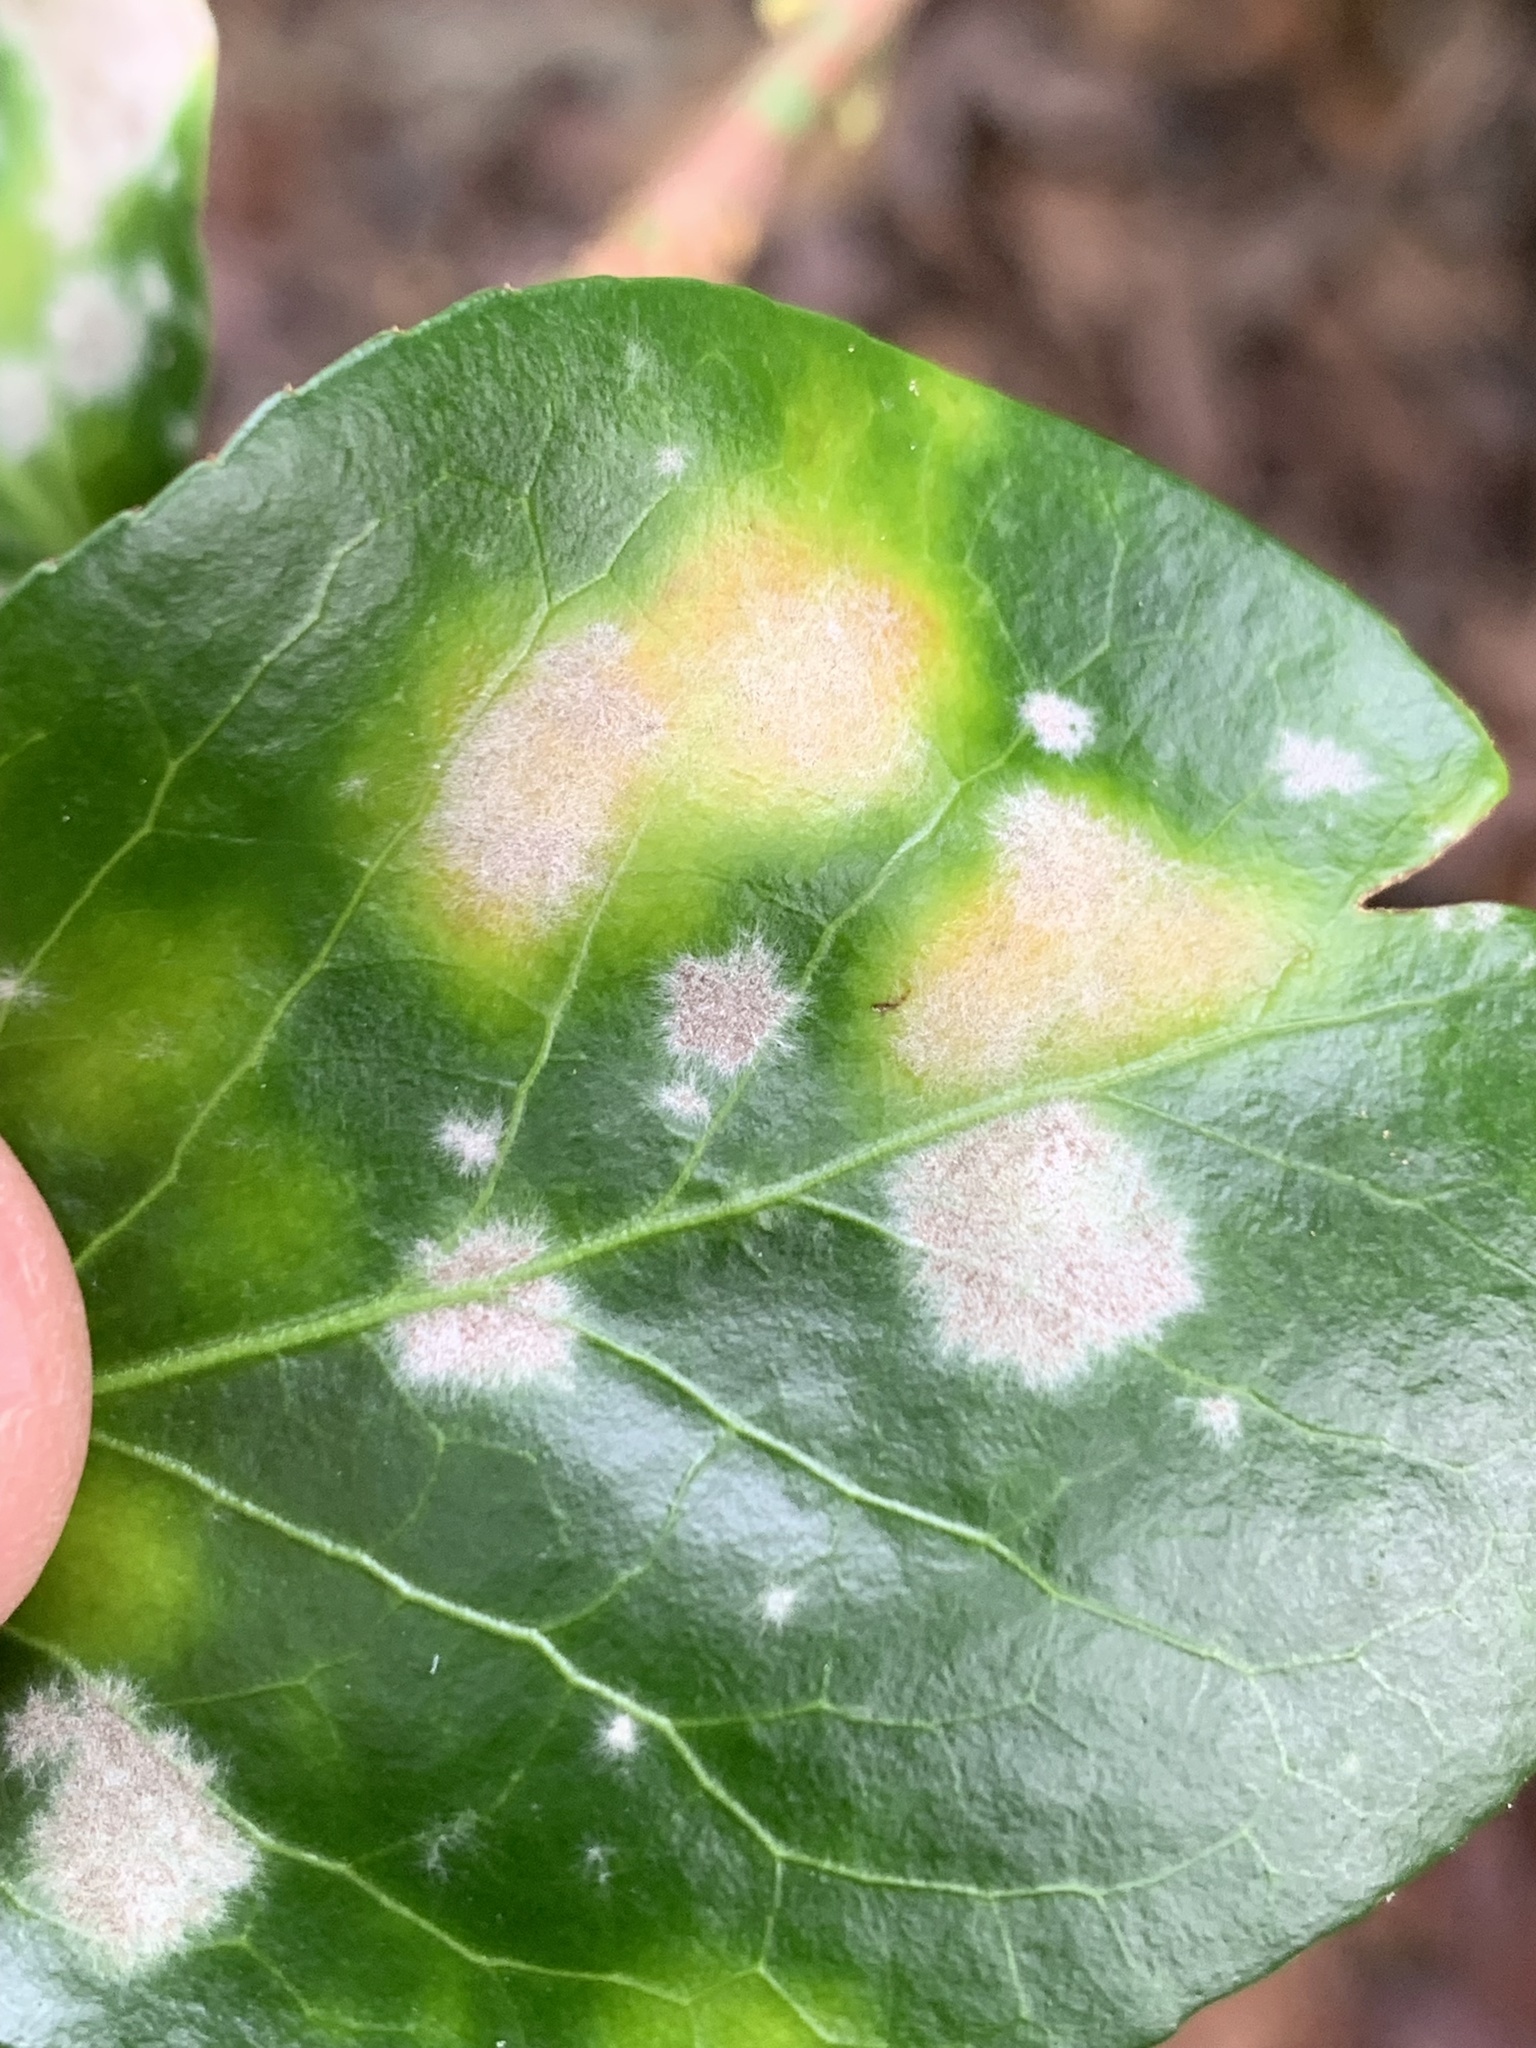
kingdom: Fungi
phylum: Ascomycota
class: Leotiomycetes
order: Helotiales
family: Erysiphaceae
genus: Erysiphe
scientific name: Erysiphe euonymicola
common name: Spindletree mildew
